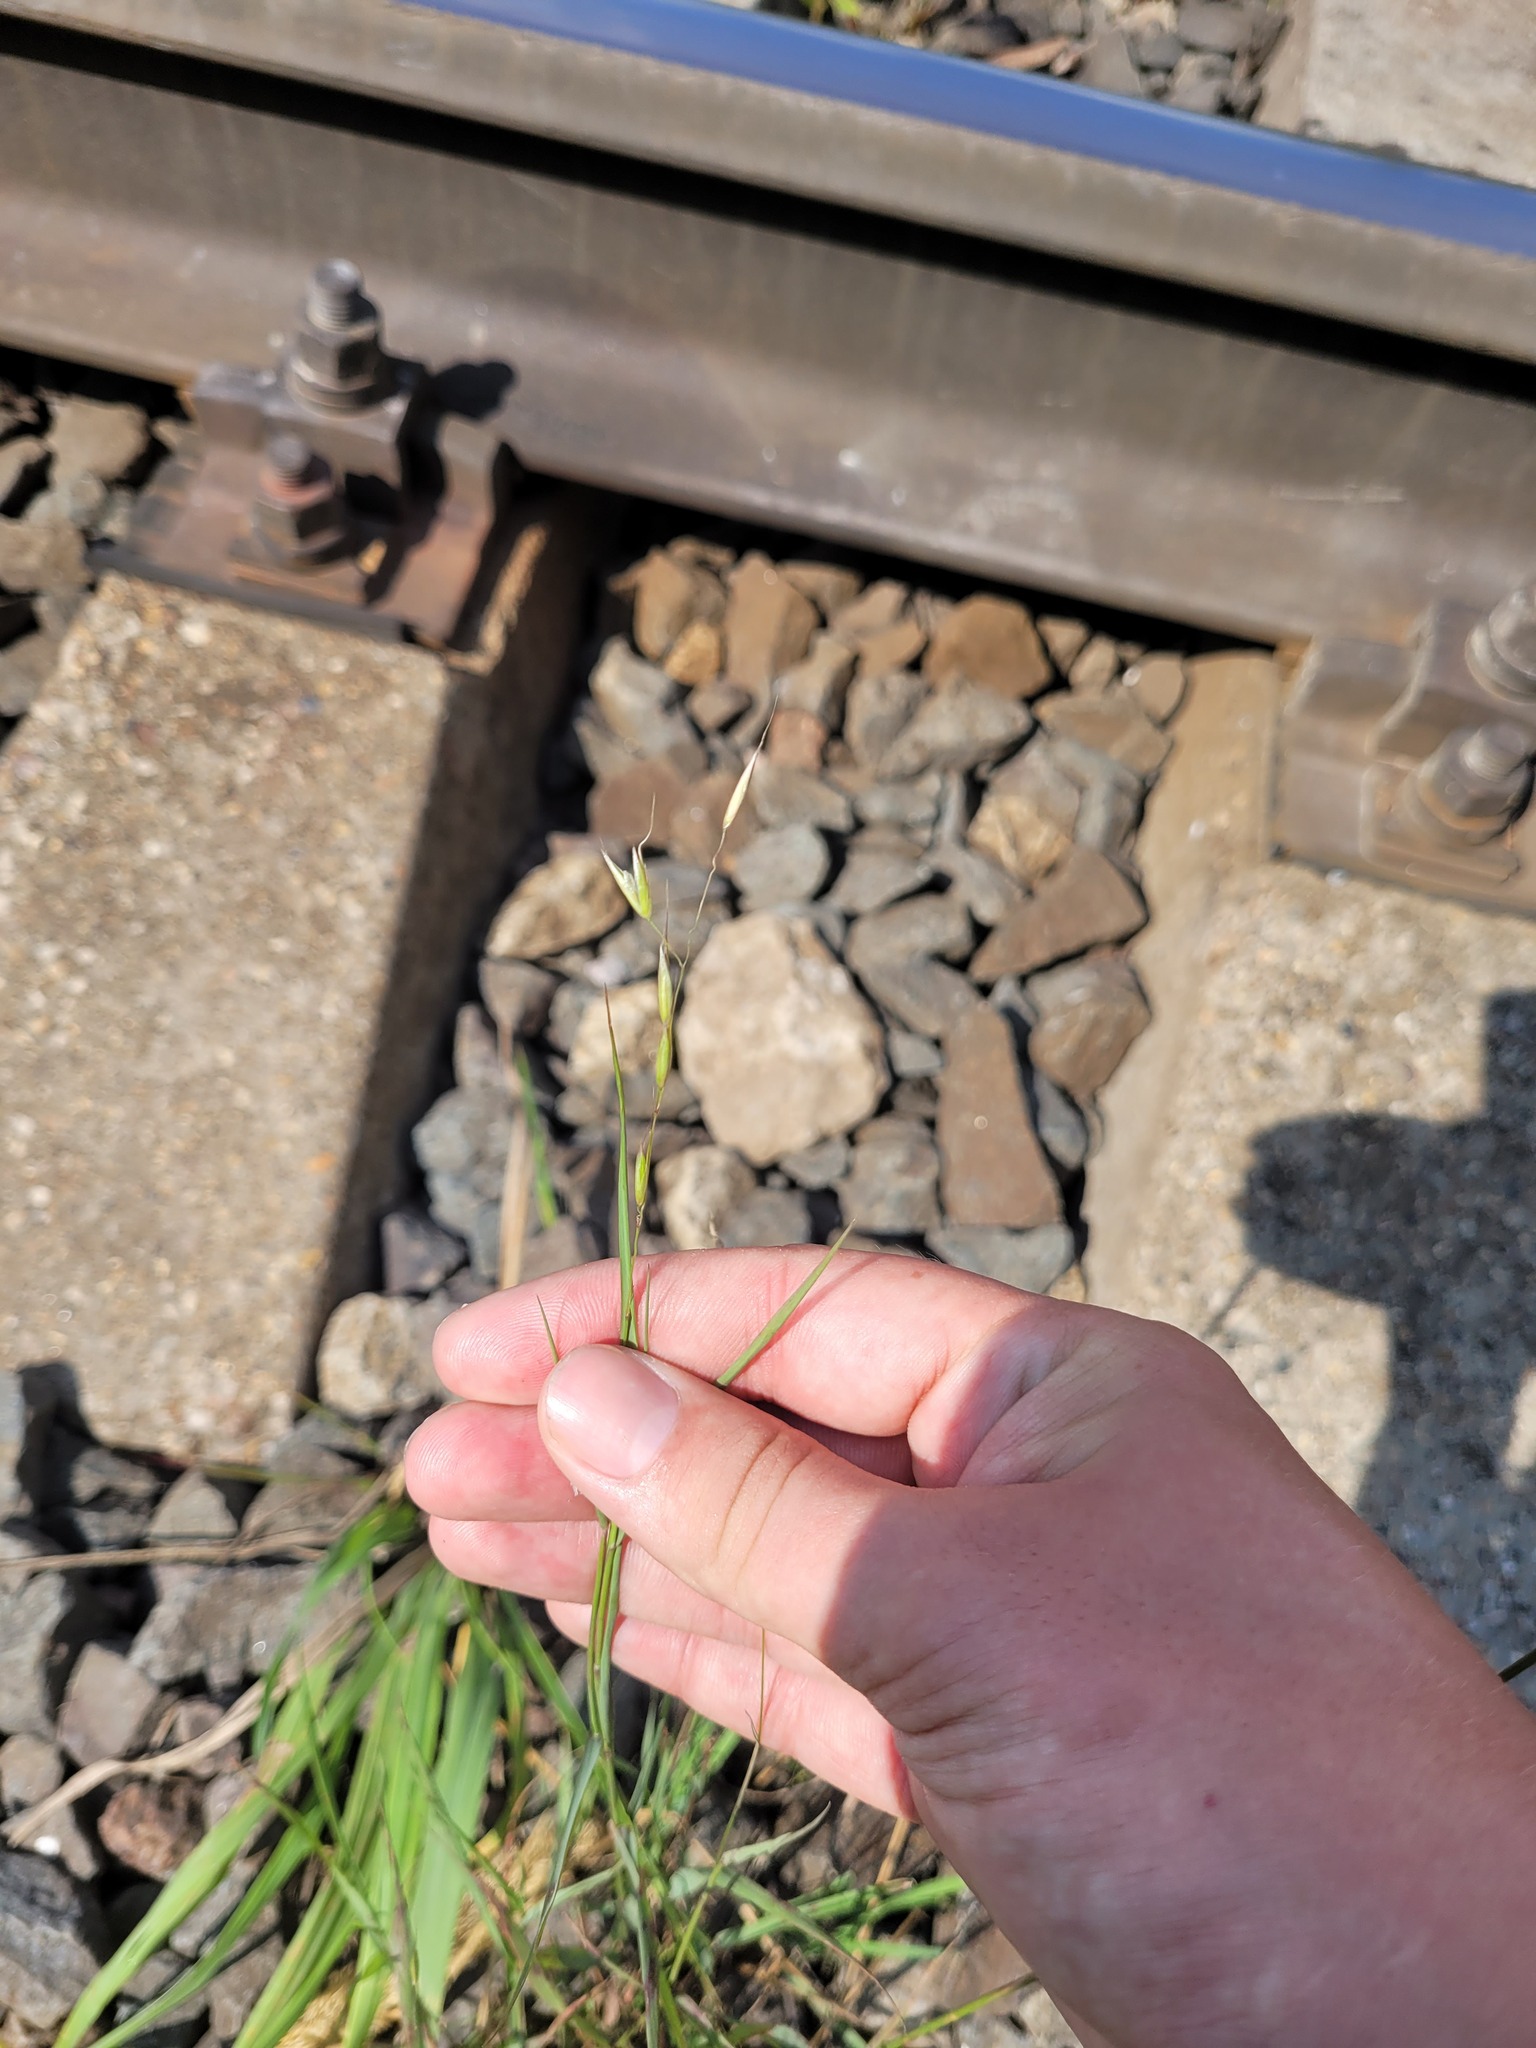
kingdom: Plantae
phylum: Tracheophyta
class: Liliopsida
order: Poales
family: Poaceae
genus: Arrhenatherum
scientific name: Arrhenatherum elatius
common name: Tall oatgrass
